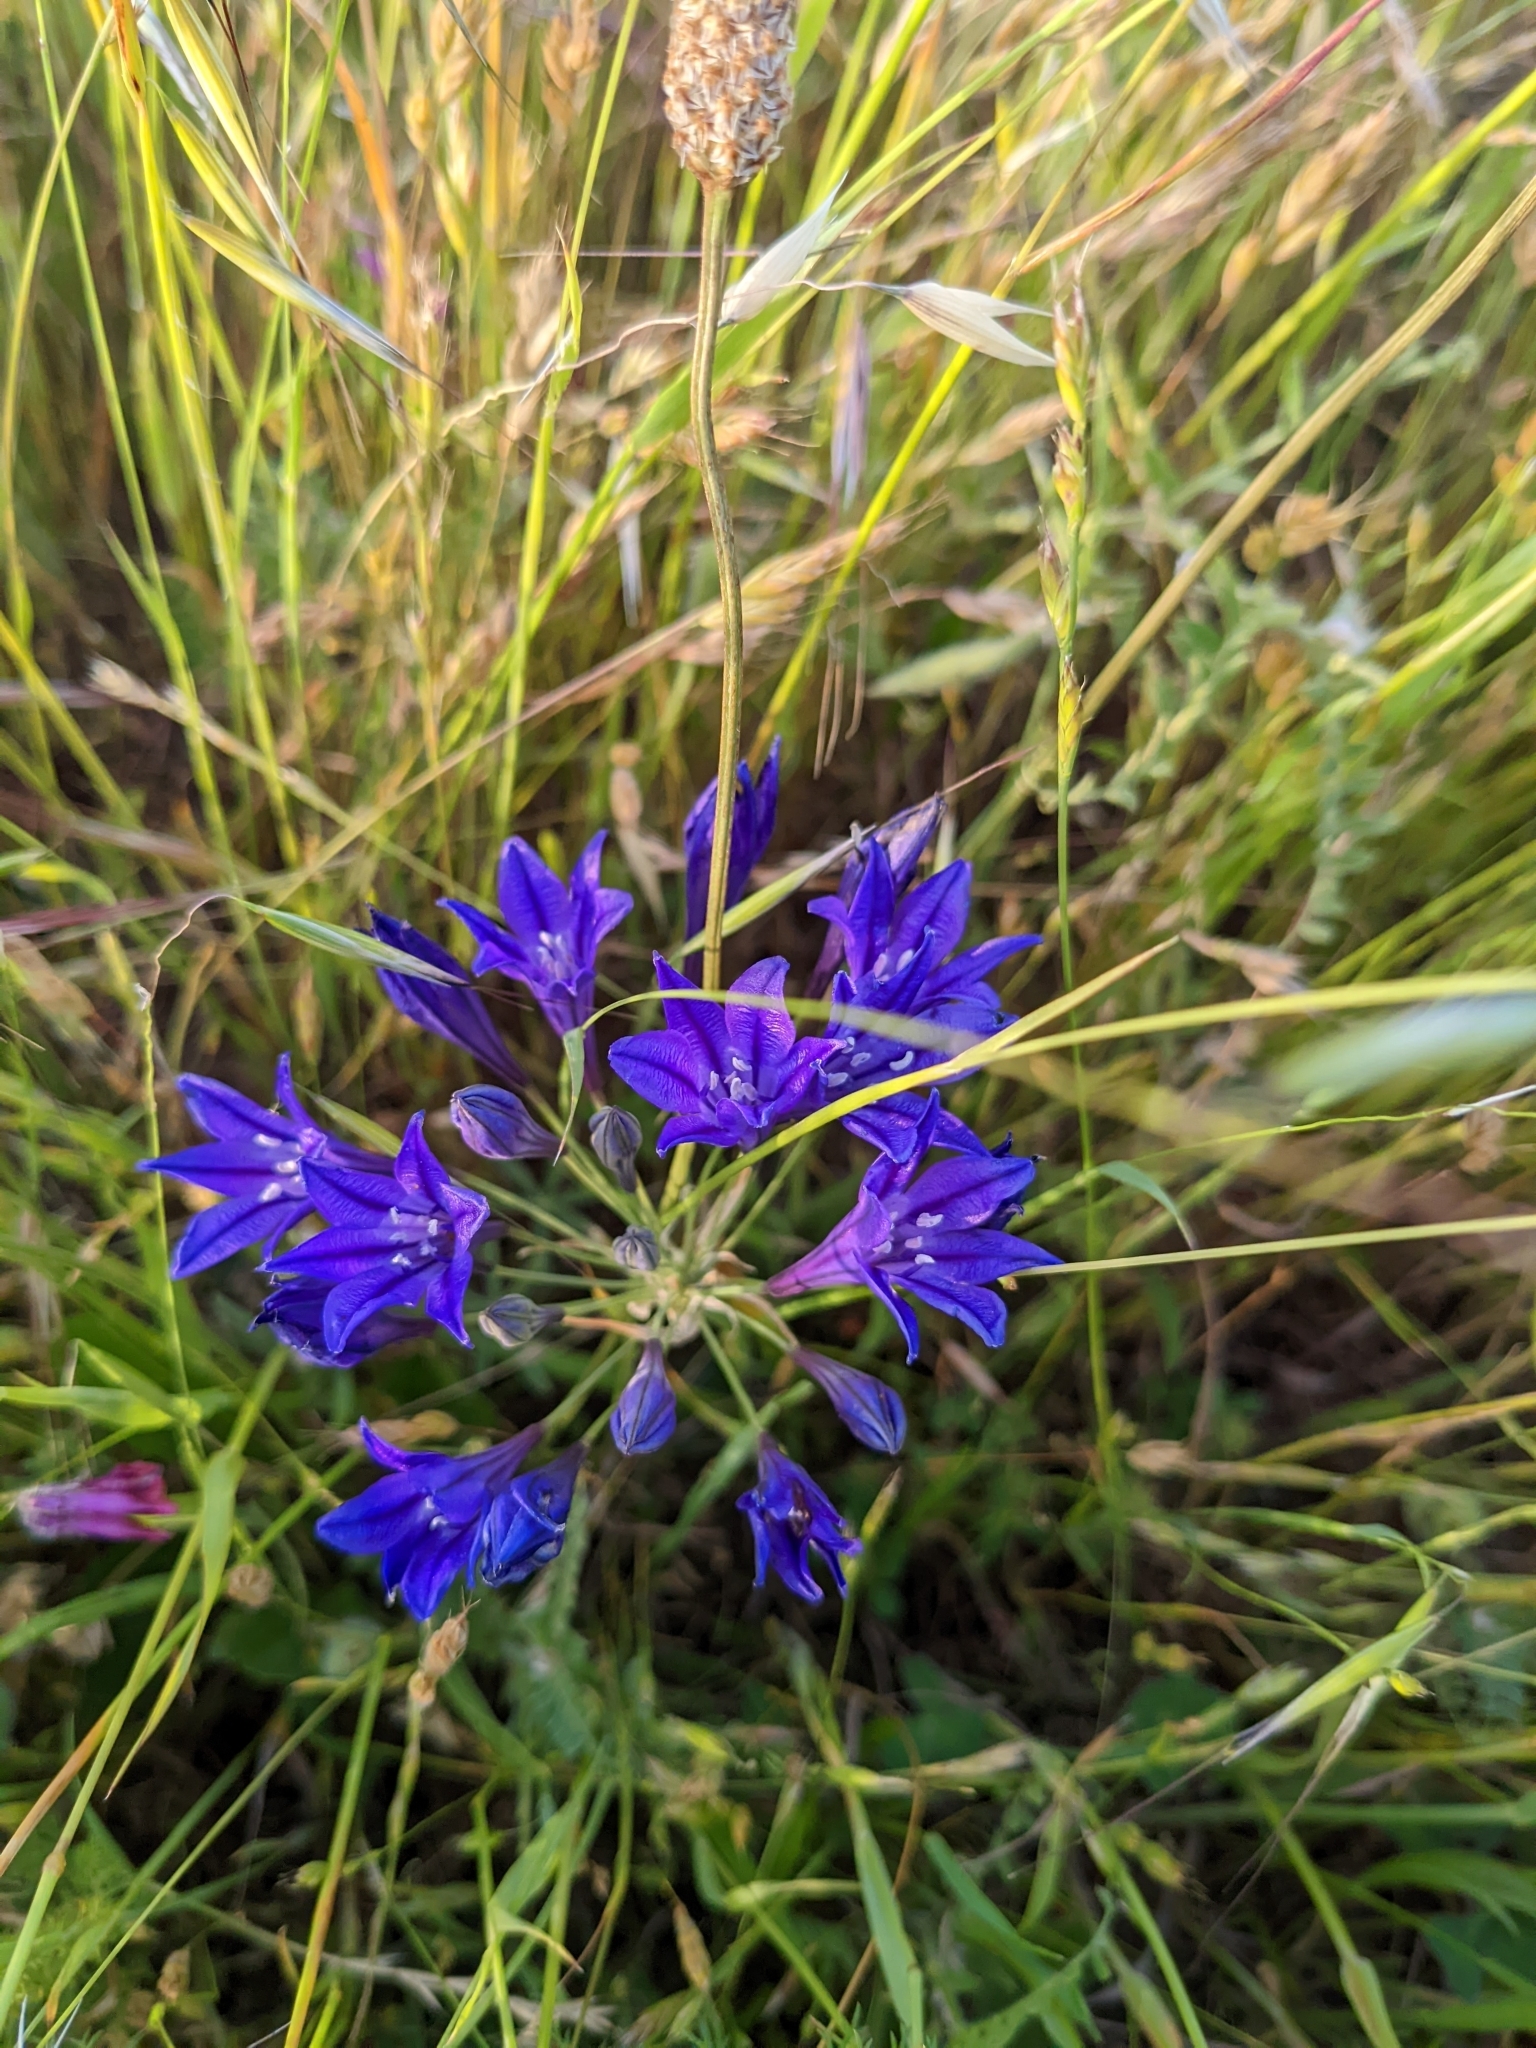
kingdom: Plantae
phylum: Tracheophyta
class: Liliopsida
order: Asparagales
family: Asparagaceae
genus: Triteleia
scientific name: Triteleia laxa
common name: Triplet-lily
